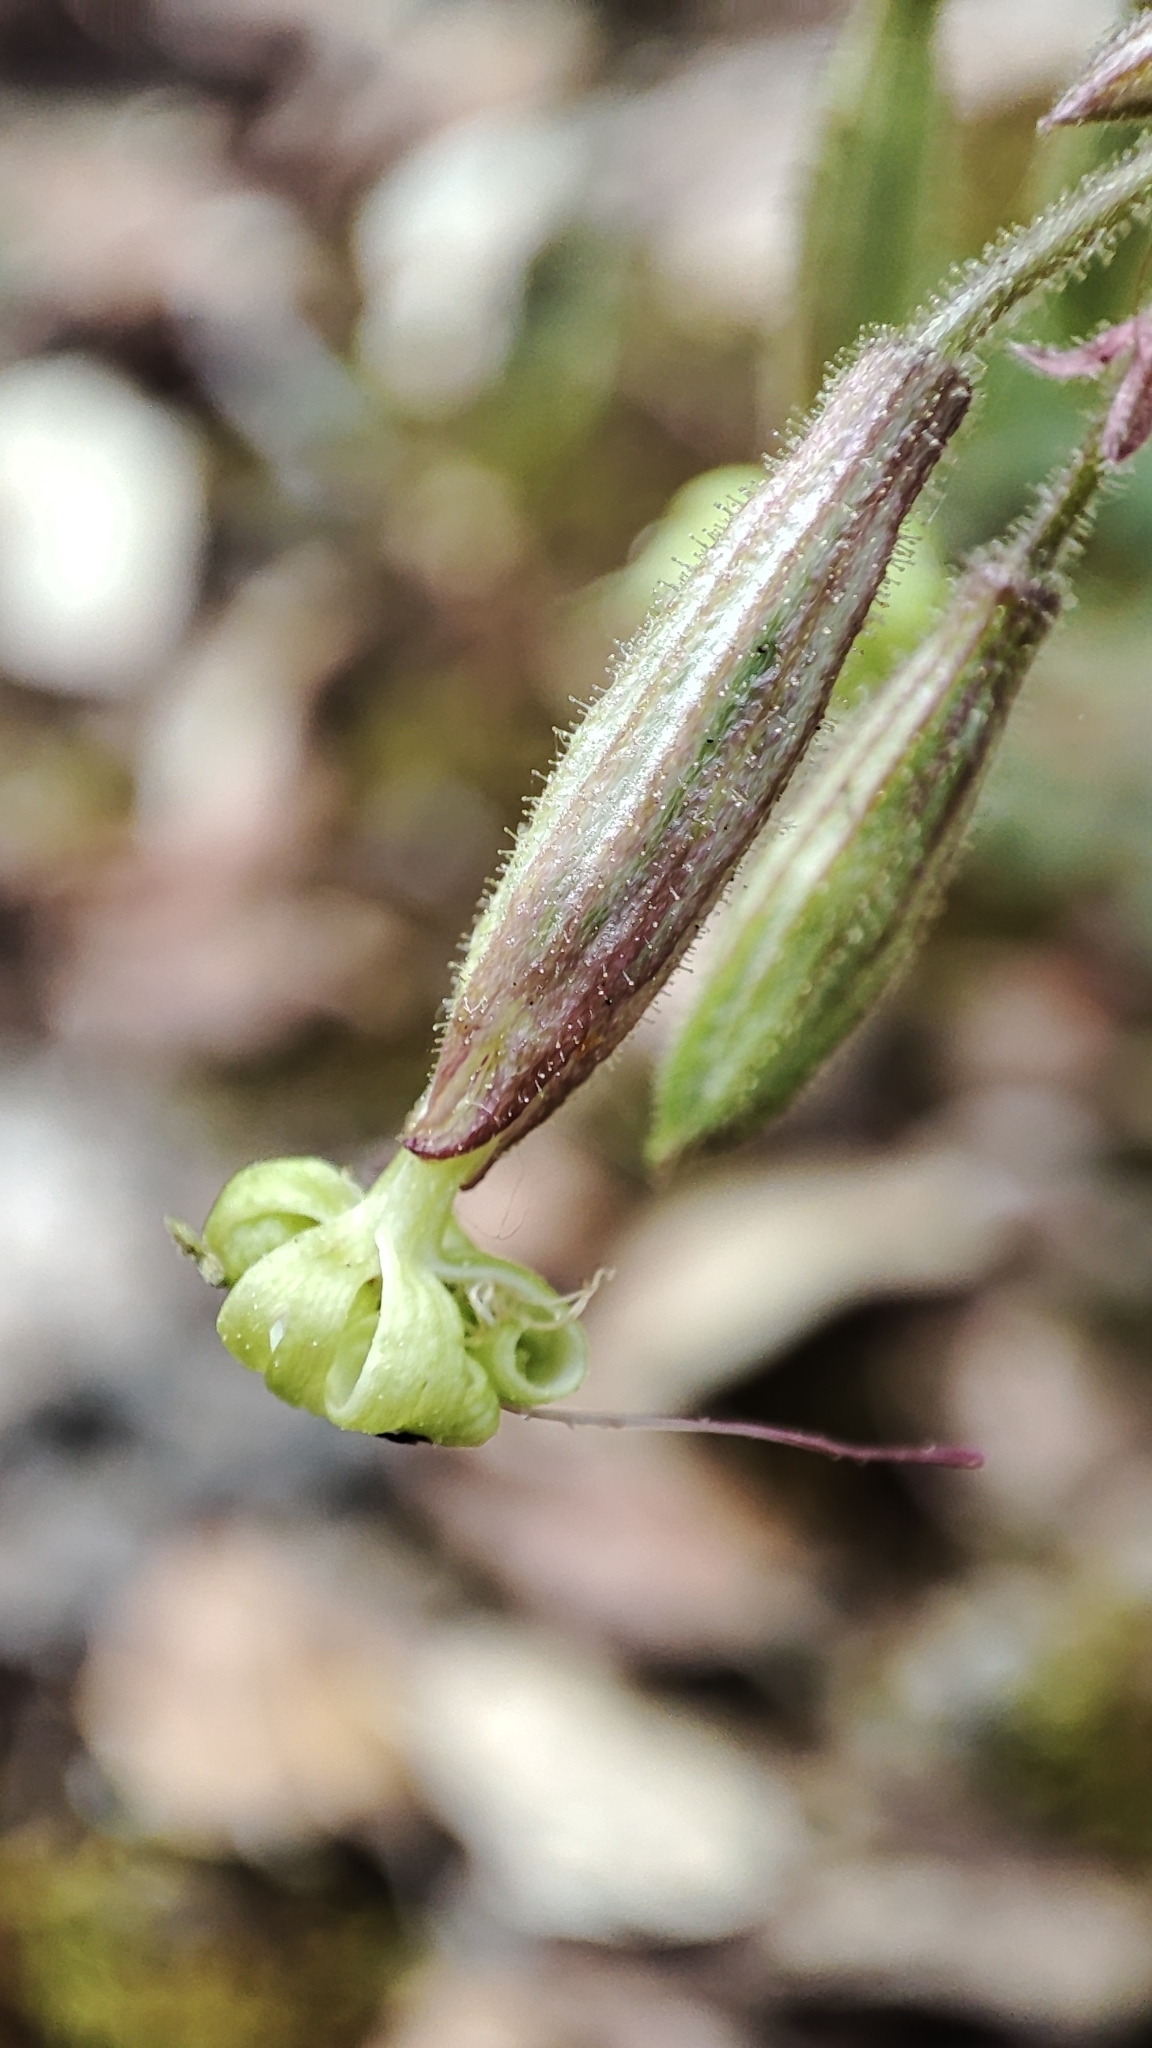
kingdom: Plantae
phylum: Tracheophyta
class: Magnoliopsida
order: Caryophyllales
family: Caryophyllaceae
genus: Silene
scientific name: Silene nutans
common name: Nottingham catchfly
